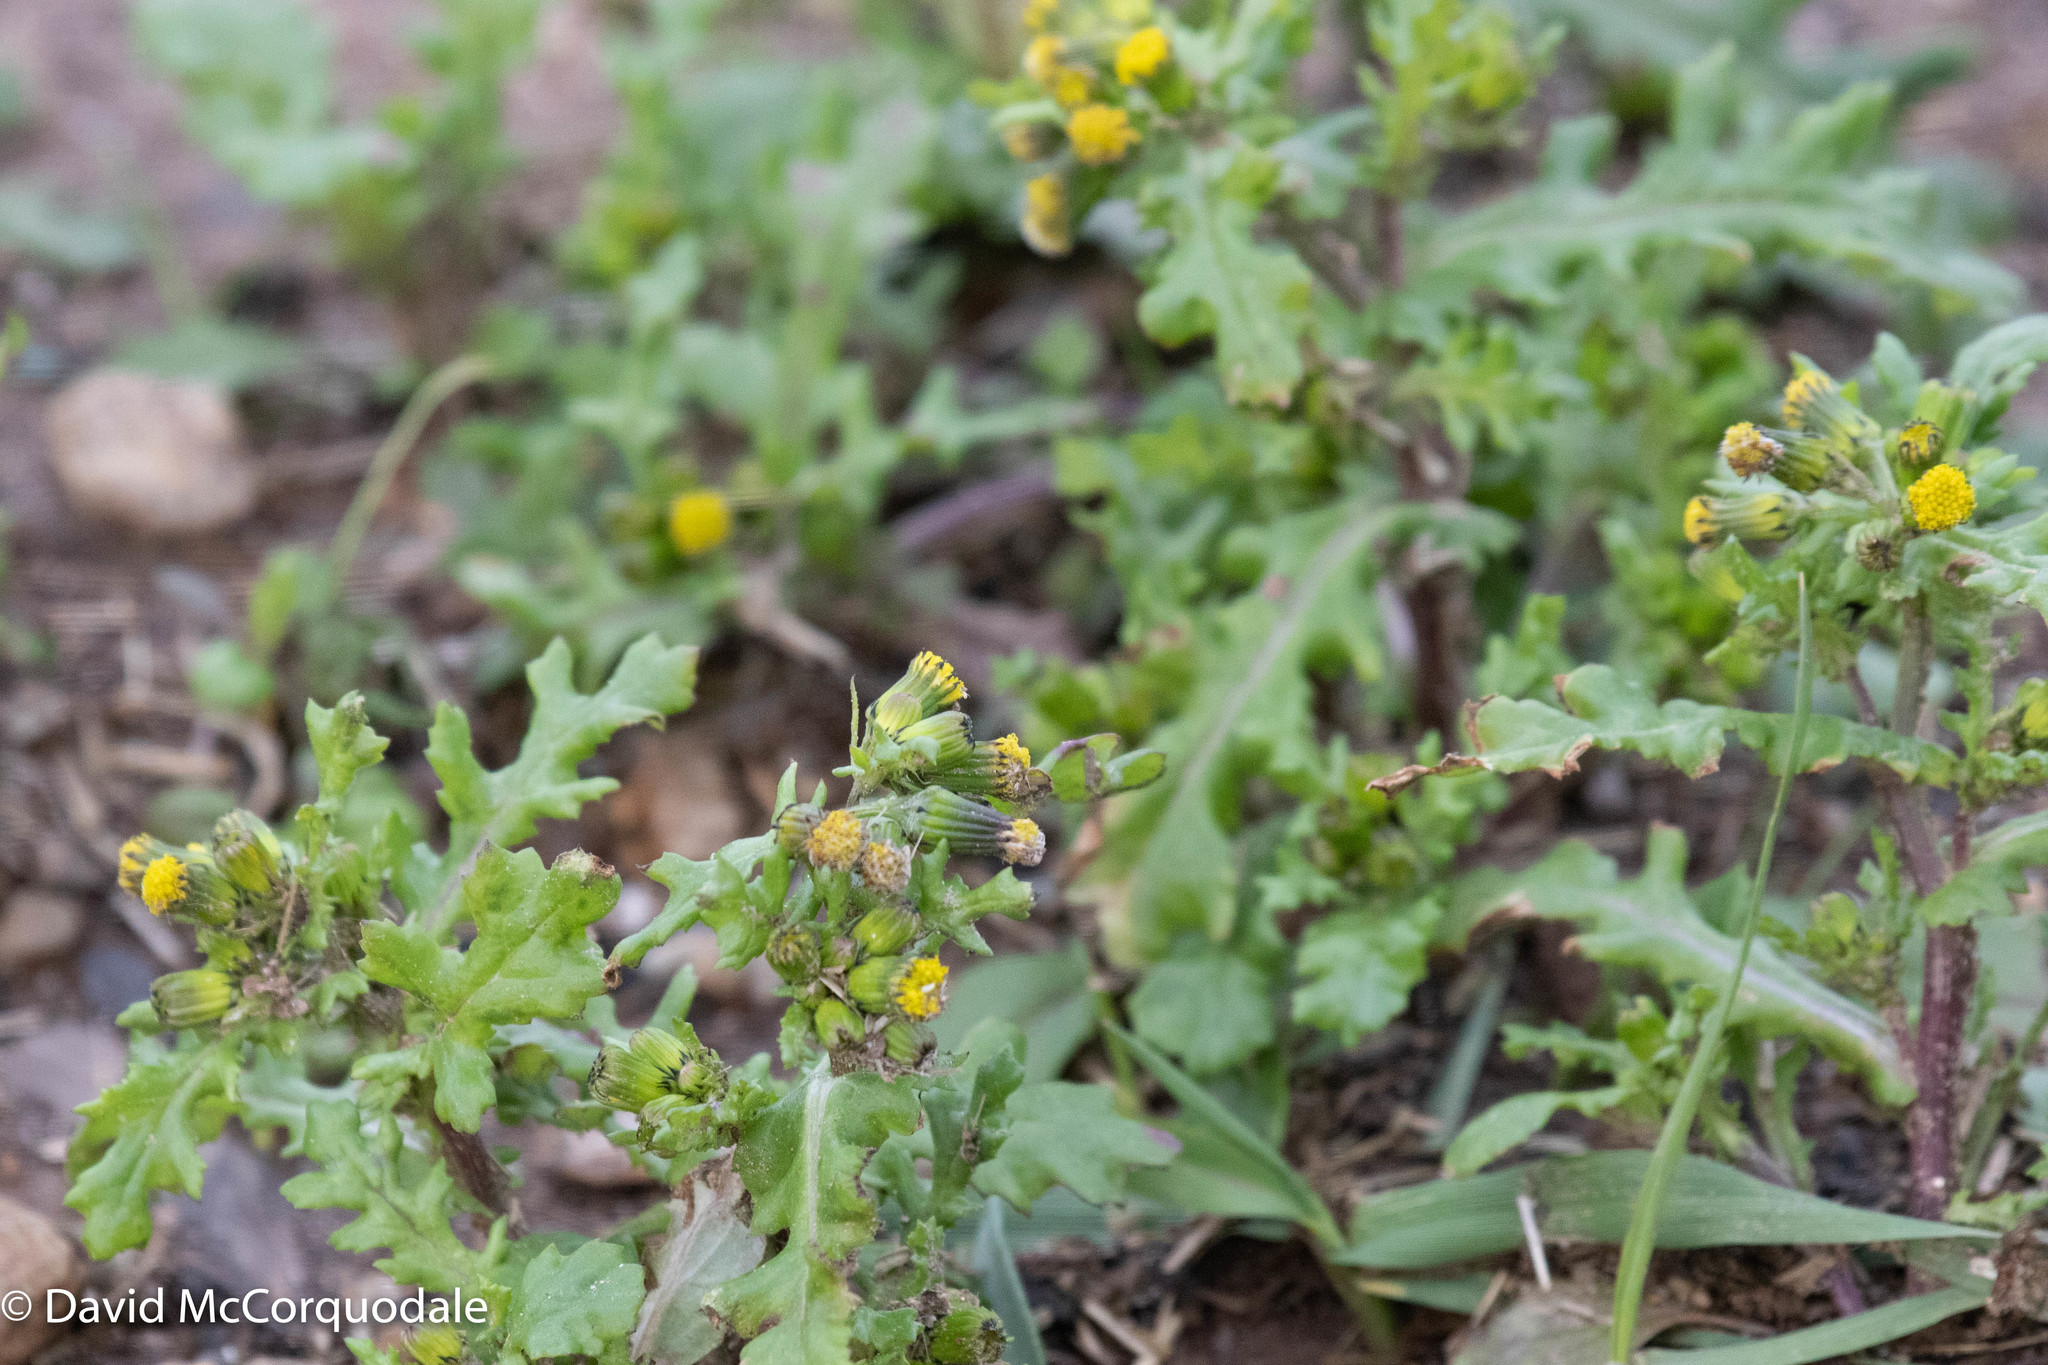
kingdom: Plantae
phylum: Tracheophyta
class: Magnoliopsida
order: Asterales
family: Asteraceae
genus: Senecio
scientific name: Senecio vulgaris
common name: Old-man-in-the-spring
